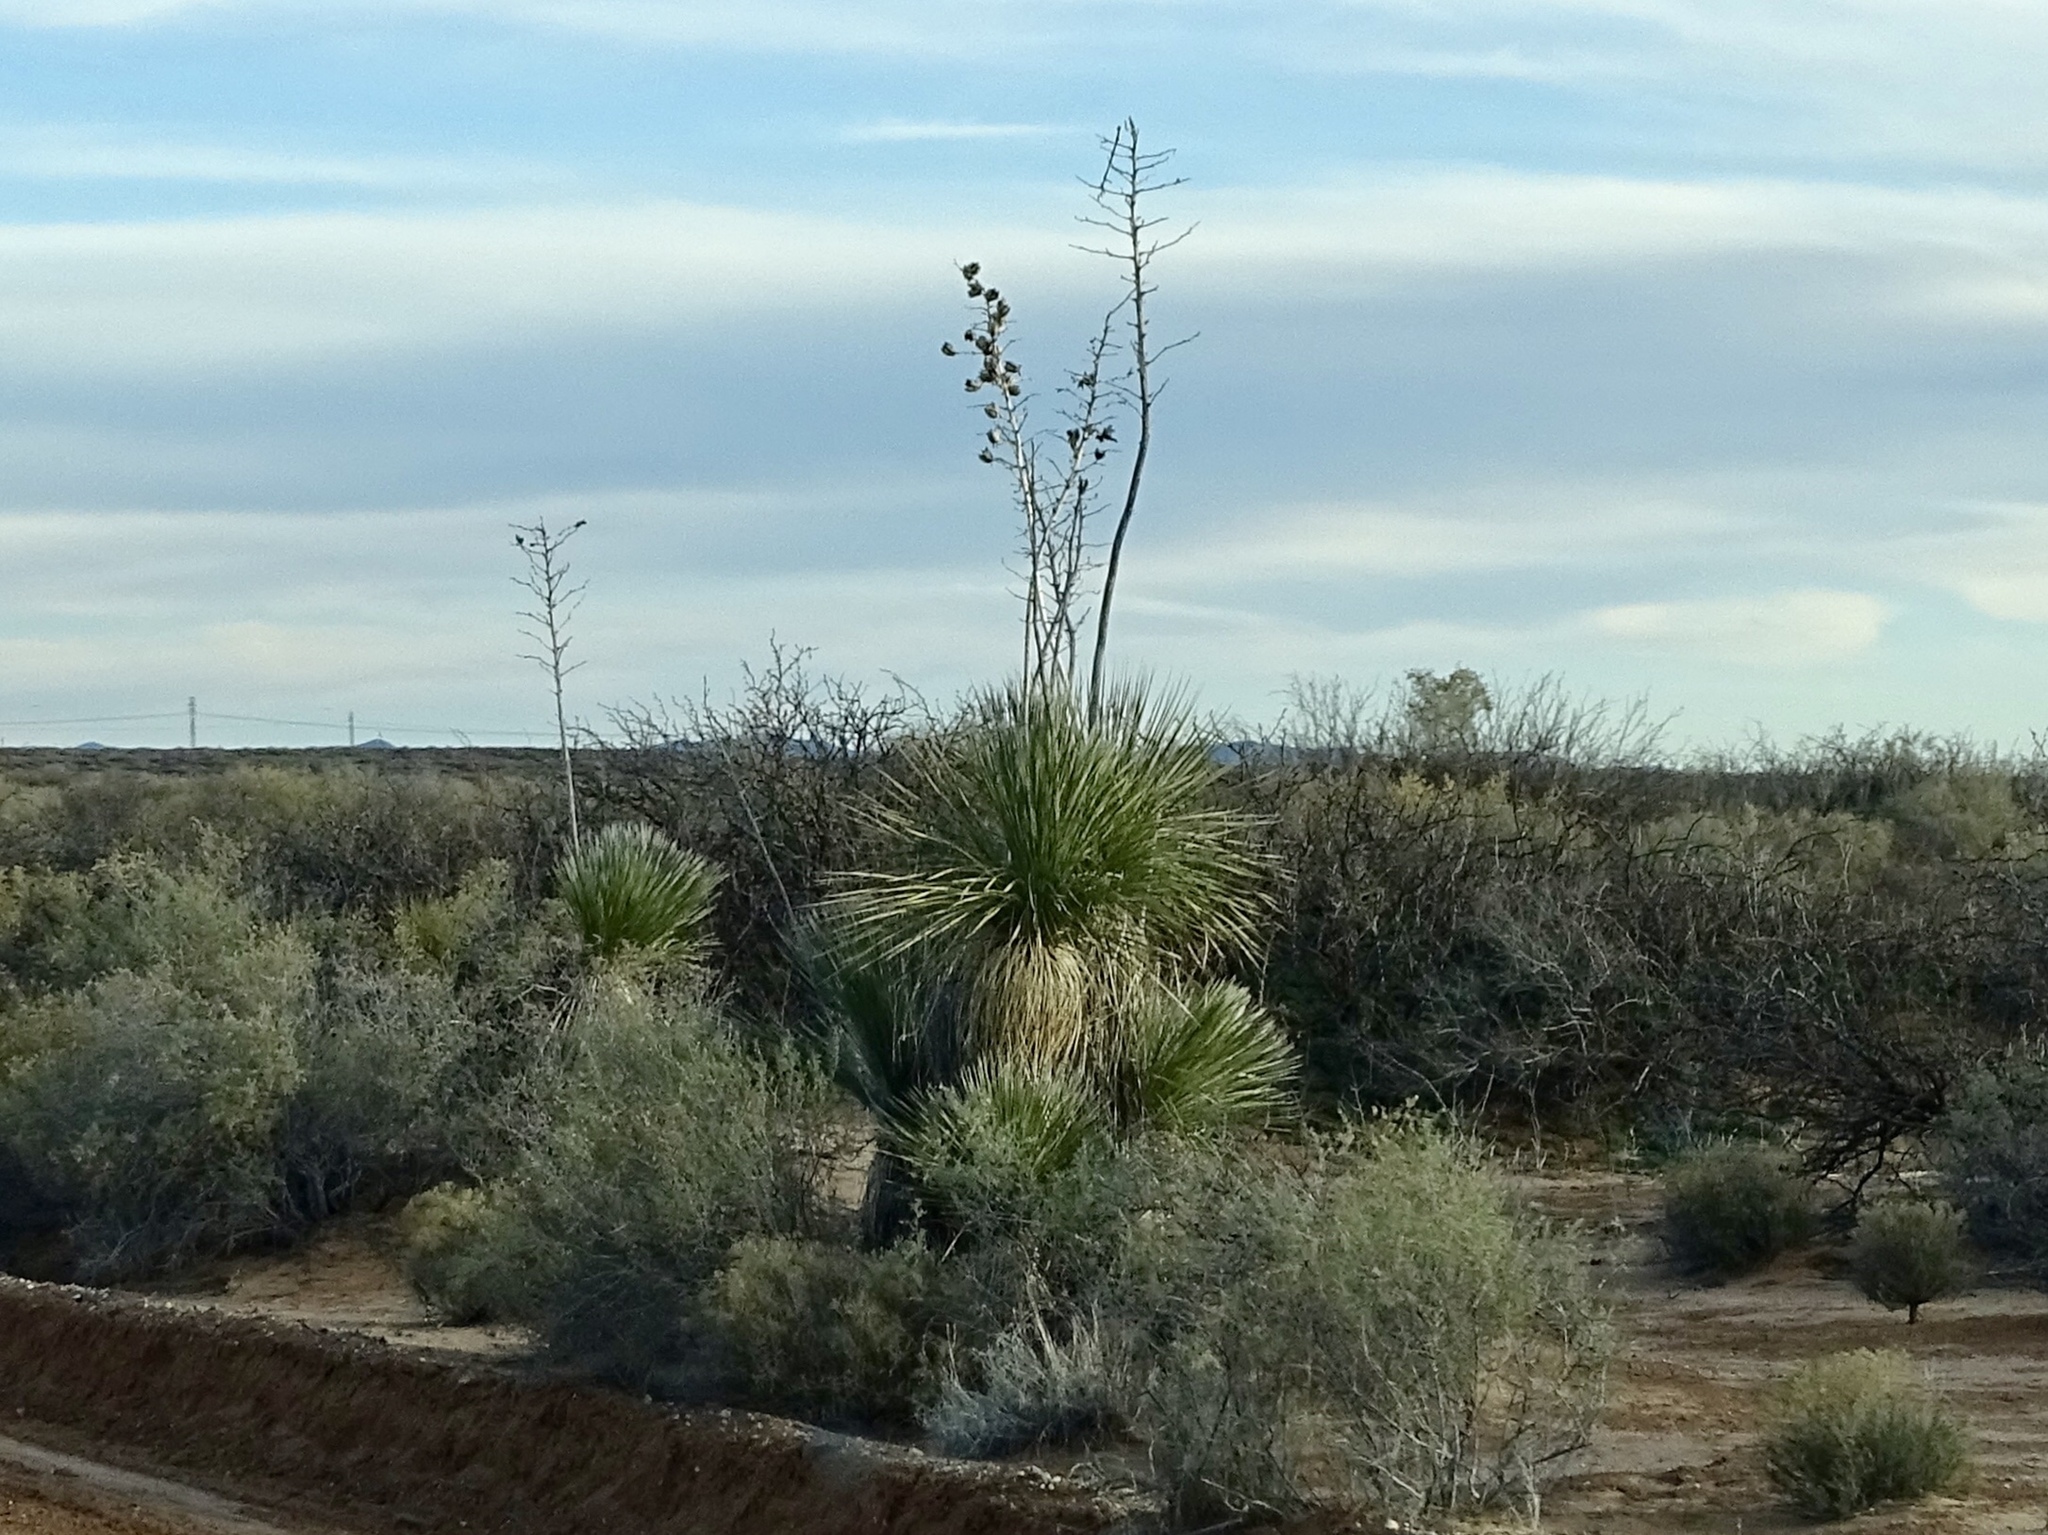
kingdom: Plantae
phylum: Tracheophyta
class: Liliopsida
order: Asparagales
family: Asparagaceae
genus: Yucca
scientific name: Yucca elata
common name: Palmella
